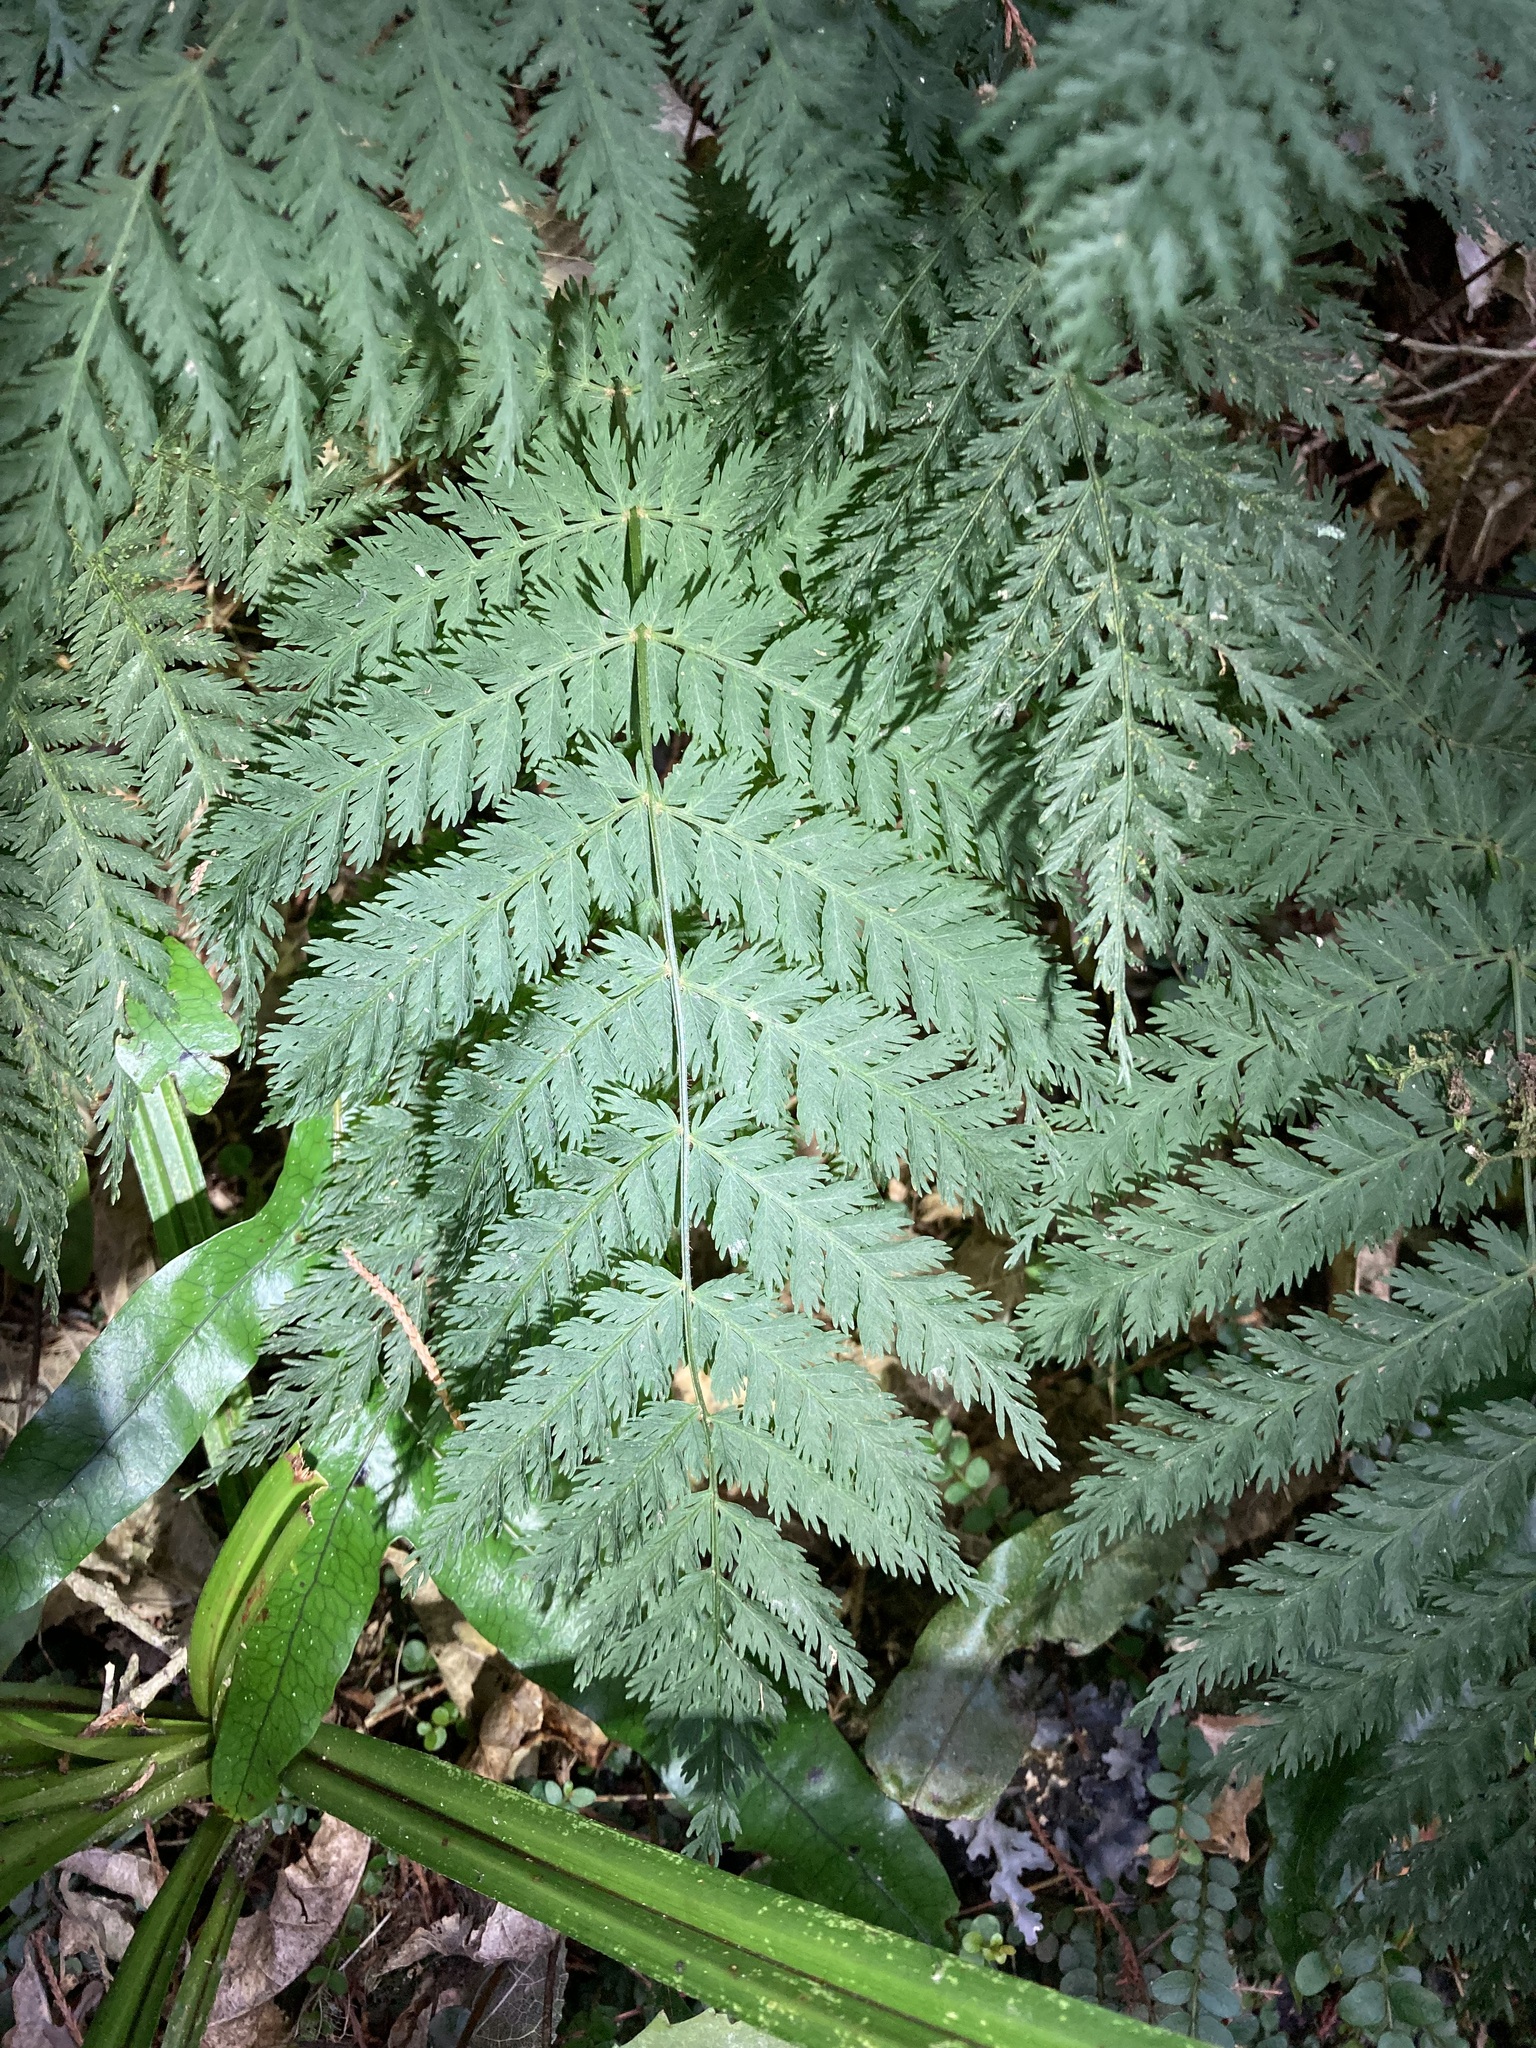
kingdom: Plantae
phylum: Tracheophyta
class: Polypodiopsida
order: Osmundales
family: Osmundaceae
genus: Leptopteris
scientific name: Leptopteris hymenophylloides
